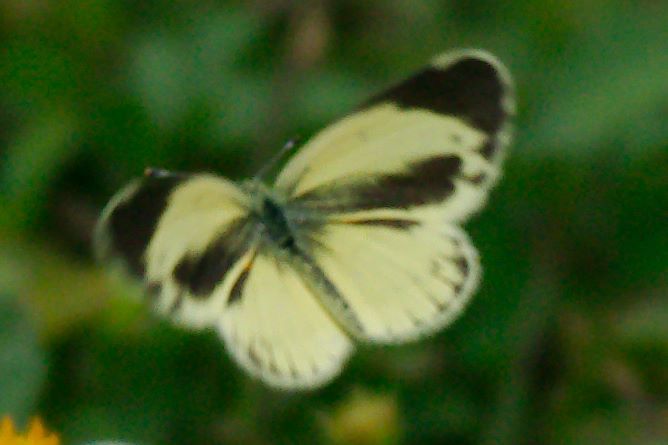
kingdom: Animalia
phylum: Arthropoda
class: Insecta
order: Lepidoptera
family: Pieridae
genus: Nathalis
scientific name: Nathalis iole
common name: Dainty sulphur
